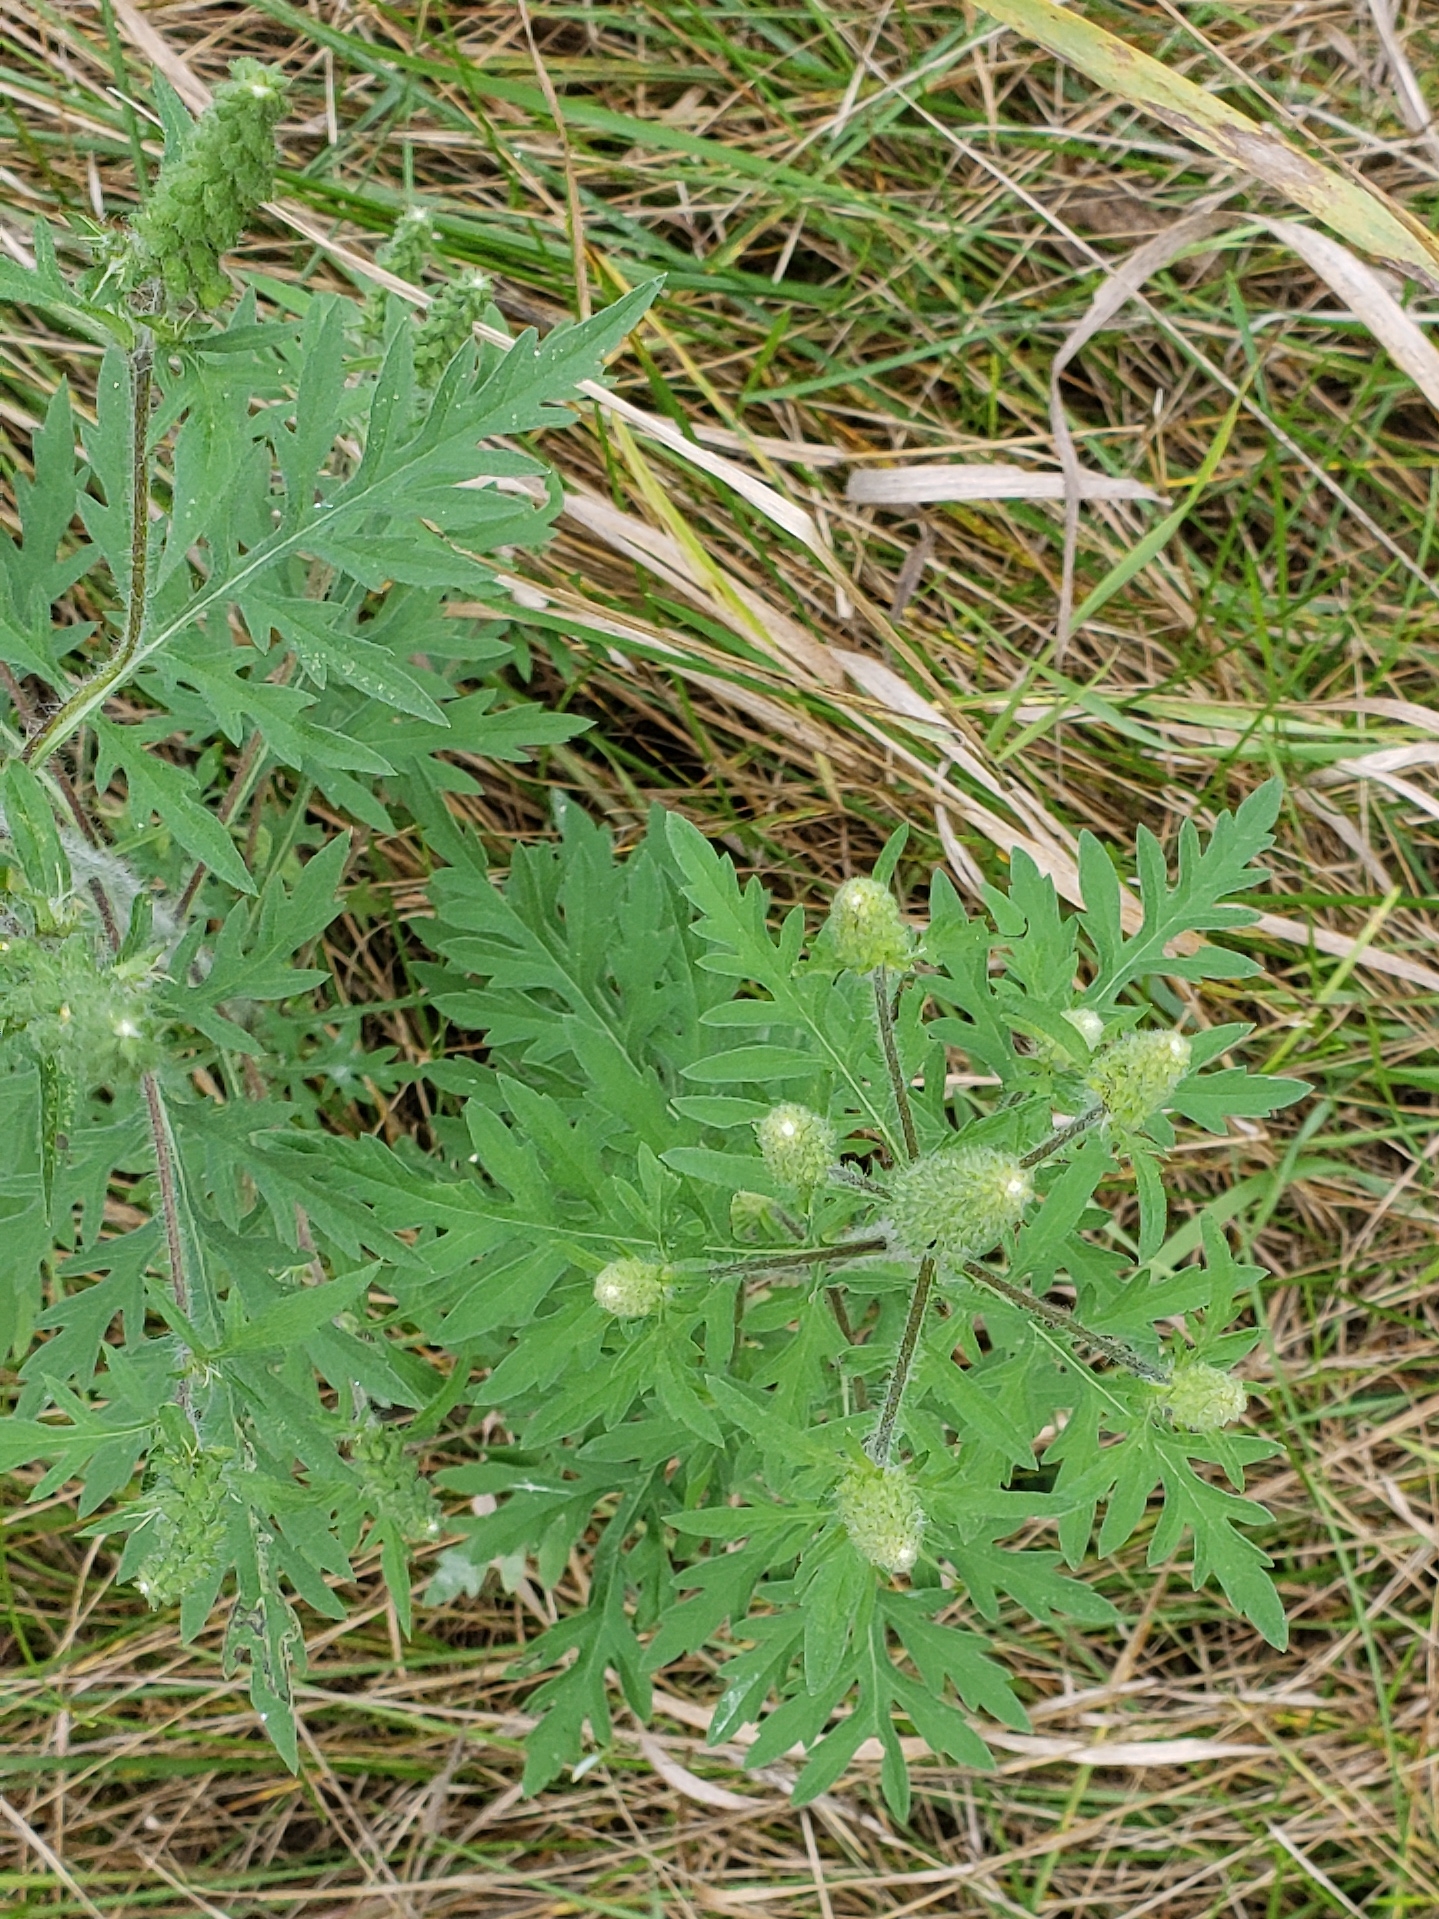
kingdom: Plantae
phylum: Tracheophyta
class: Magnoliopsida
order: Asterales
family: Asteraceae
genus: Ambrosia
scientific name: Ambrosia artemisiifolia
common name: Annual ragweed
